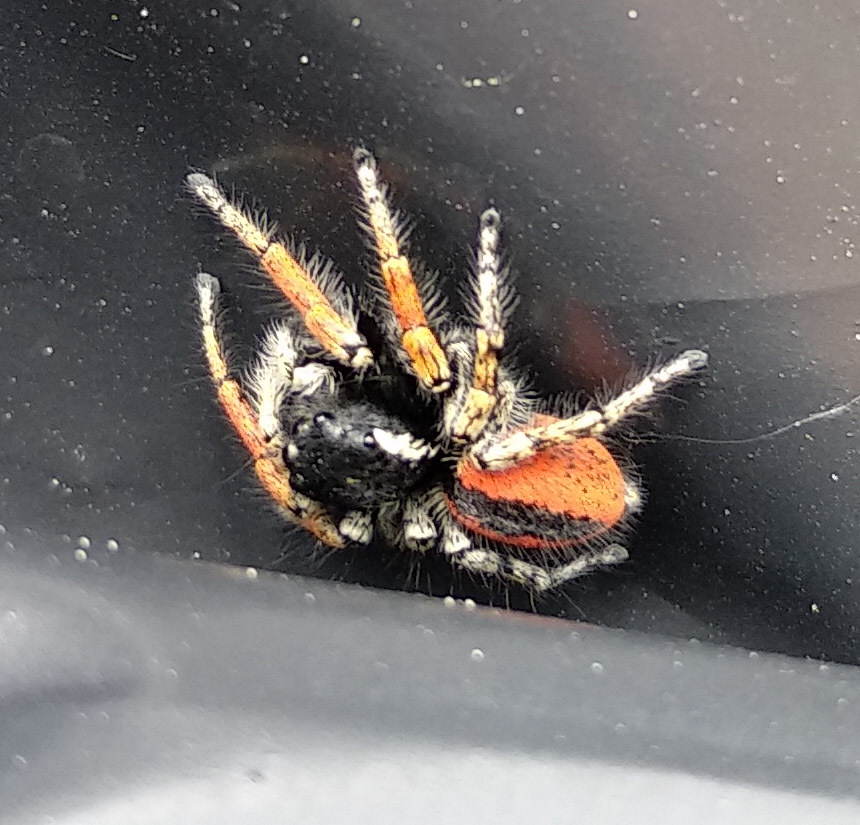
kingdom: Animalia
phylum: Arthropoda
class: Arachnida
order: Araneae
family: Salticidae
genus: Philaeus
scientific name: Philaeus chrysops
